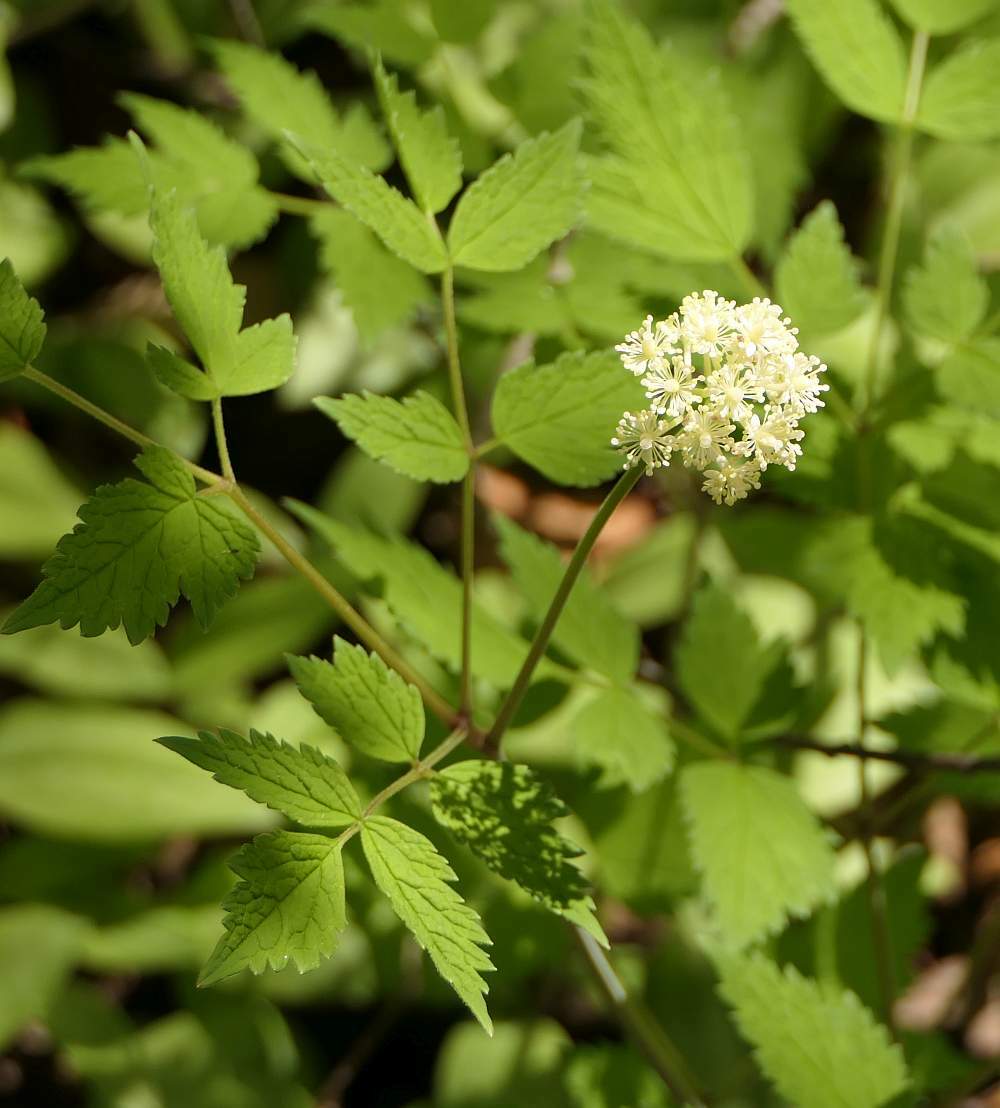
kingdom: Plantae
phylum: Tracheophyta
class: Magnoliopsida
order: Ranunculales
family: Ranunculaceae
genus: Actaea
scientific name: Actaea rubra
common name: Red baneberry
